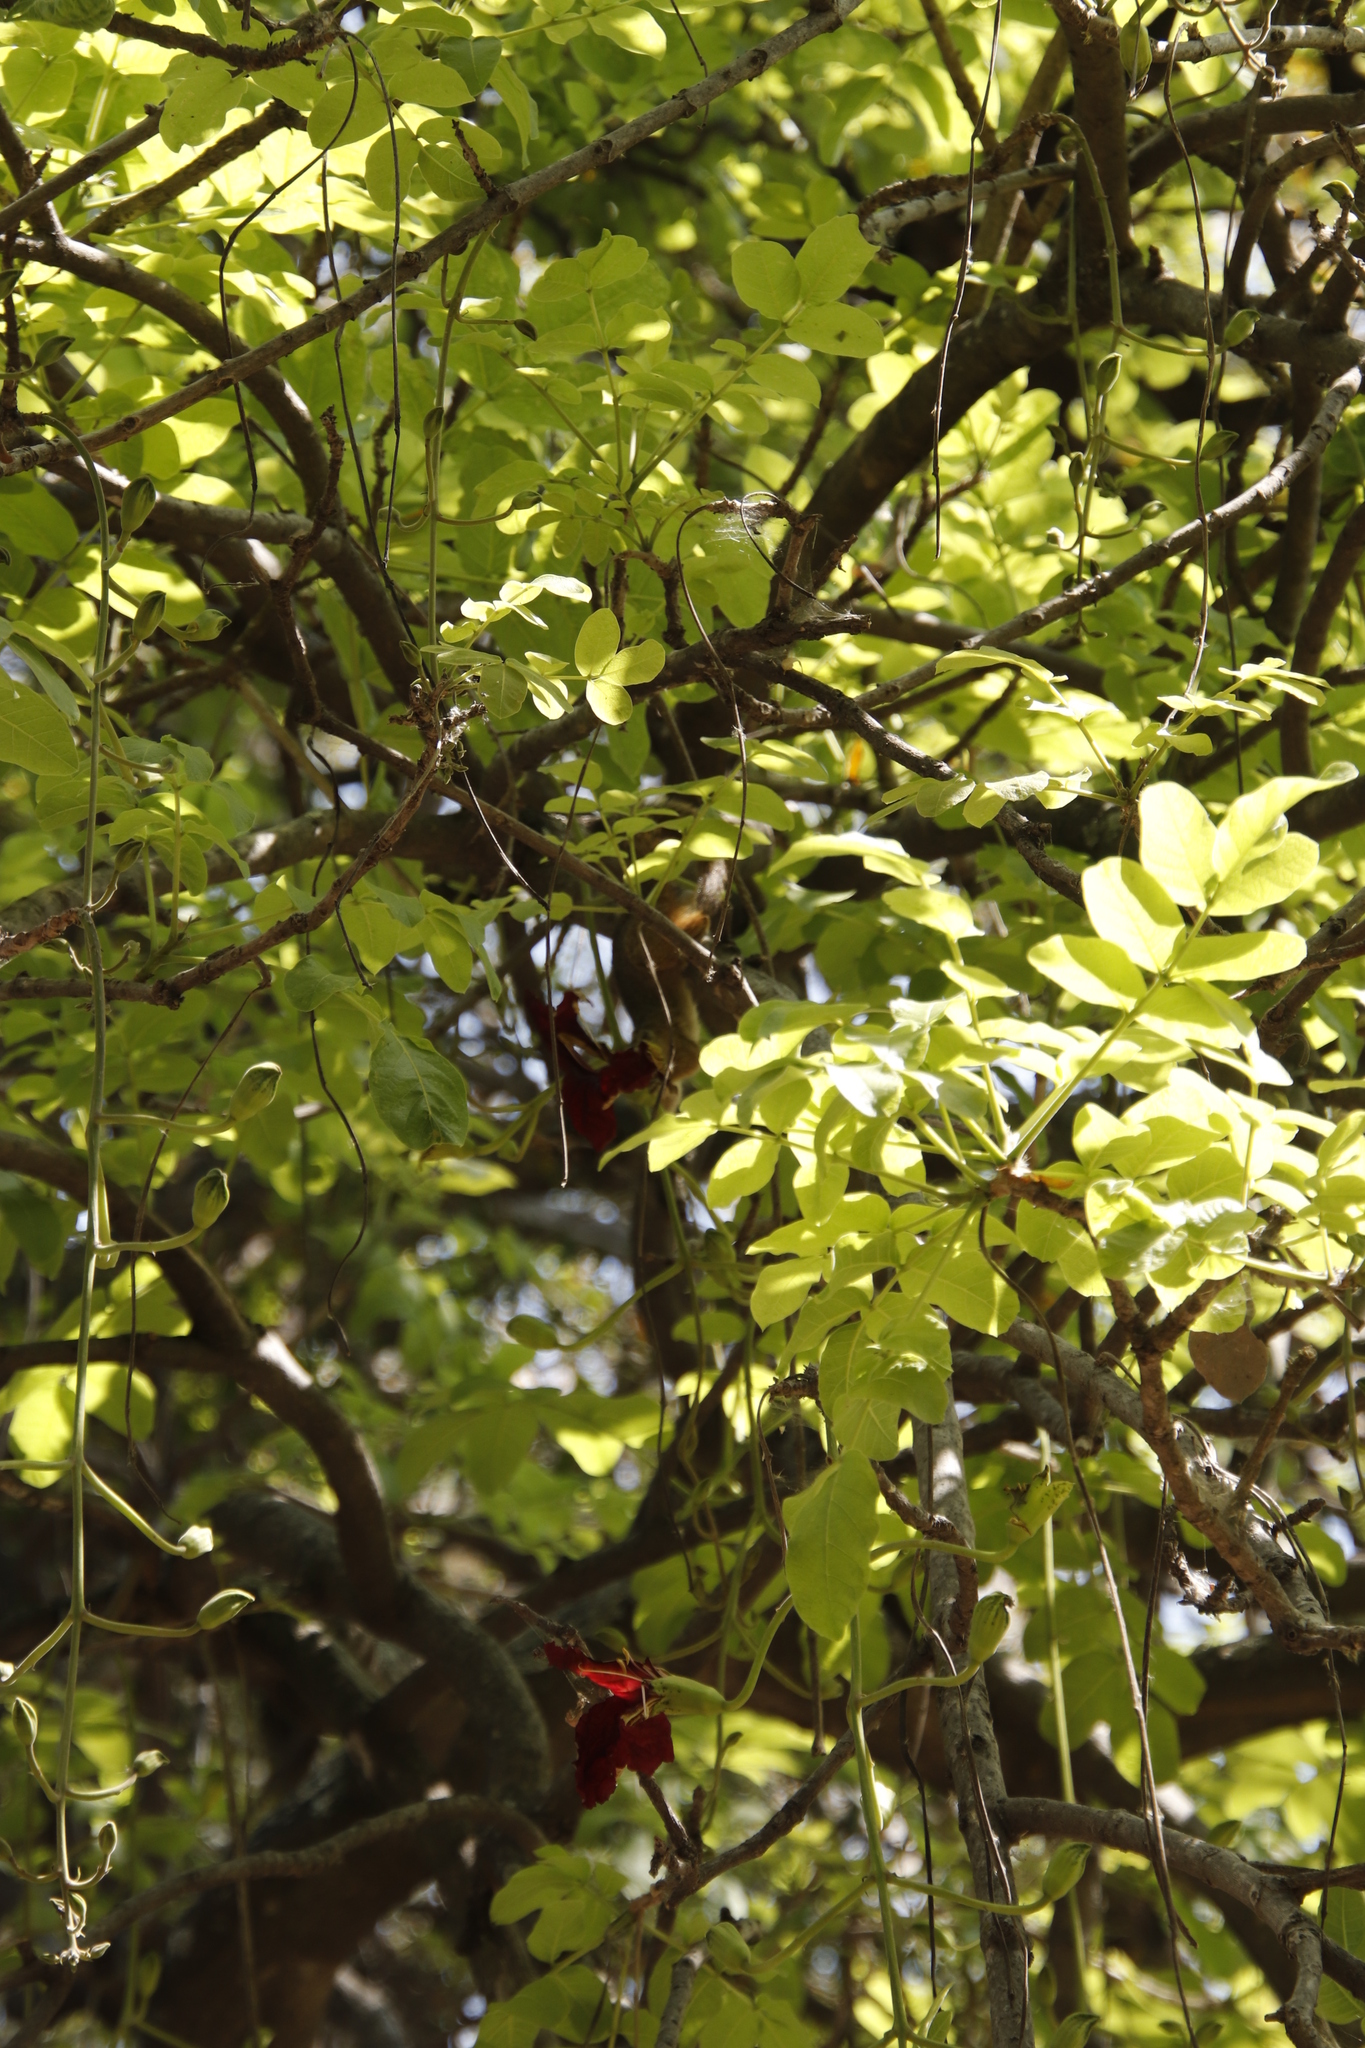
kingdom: Animalia
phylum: Chordata
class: Mammalia
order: Rodentia
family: Sciuridae
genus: Paraxerus
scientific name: Paraxerus cepapi
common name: Smith's bush squirrel
